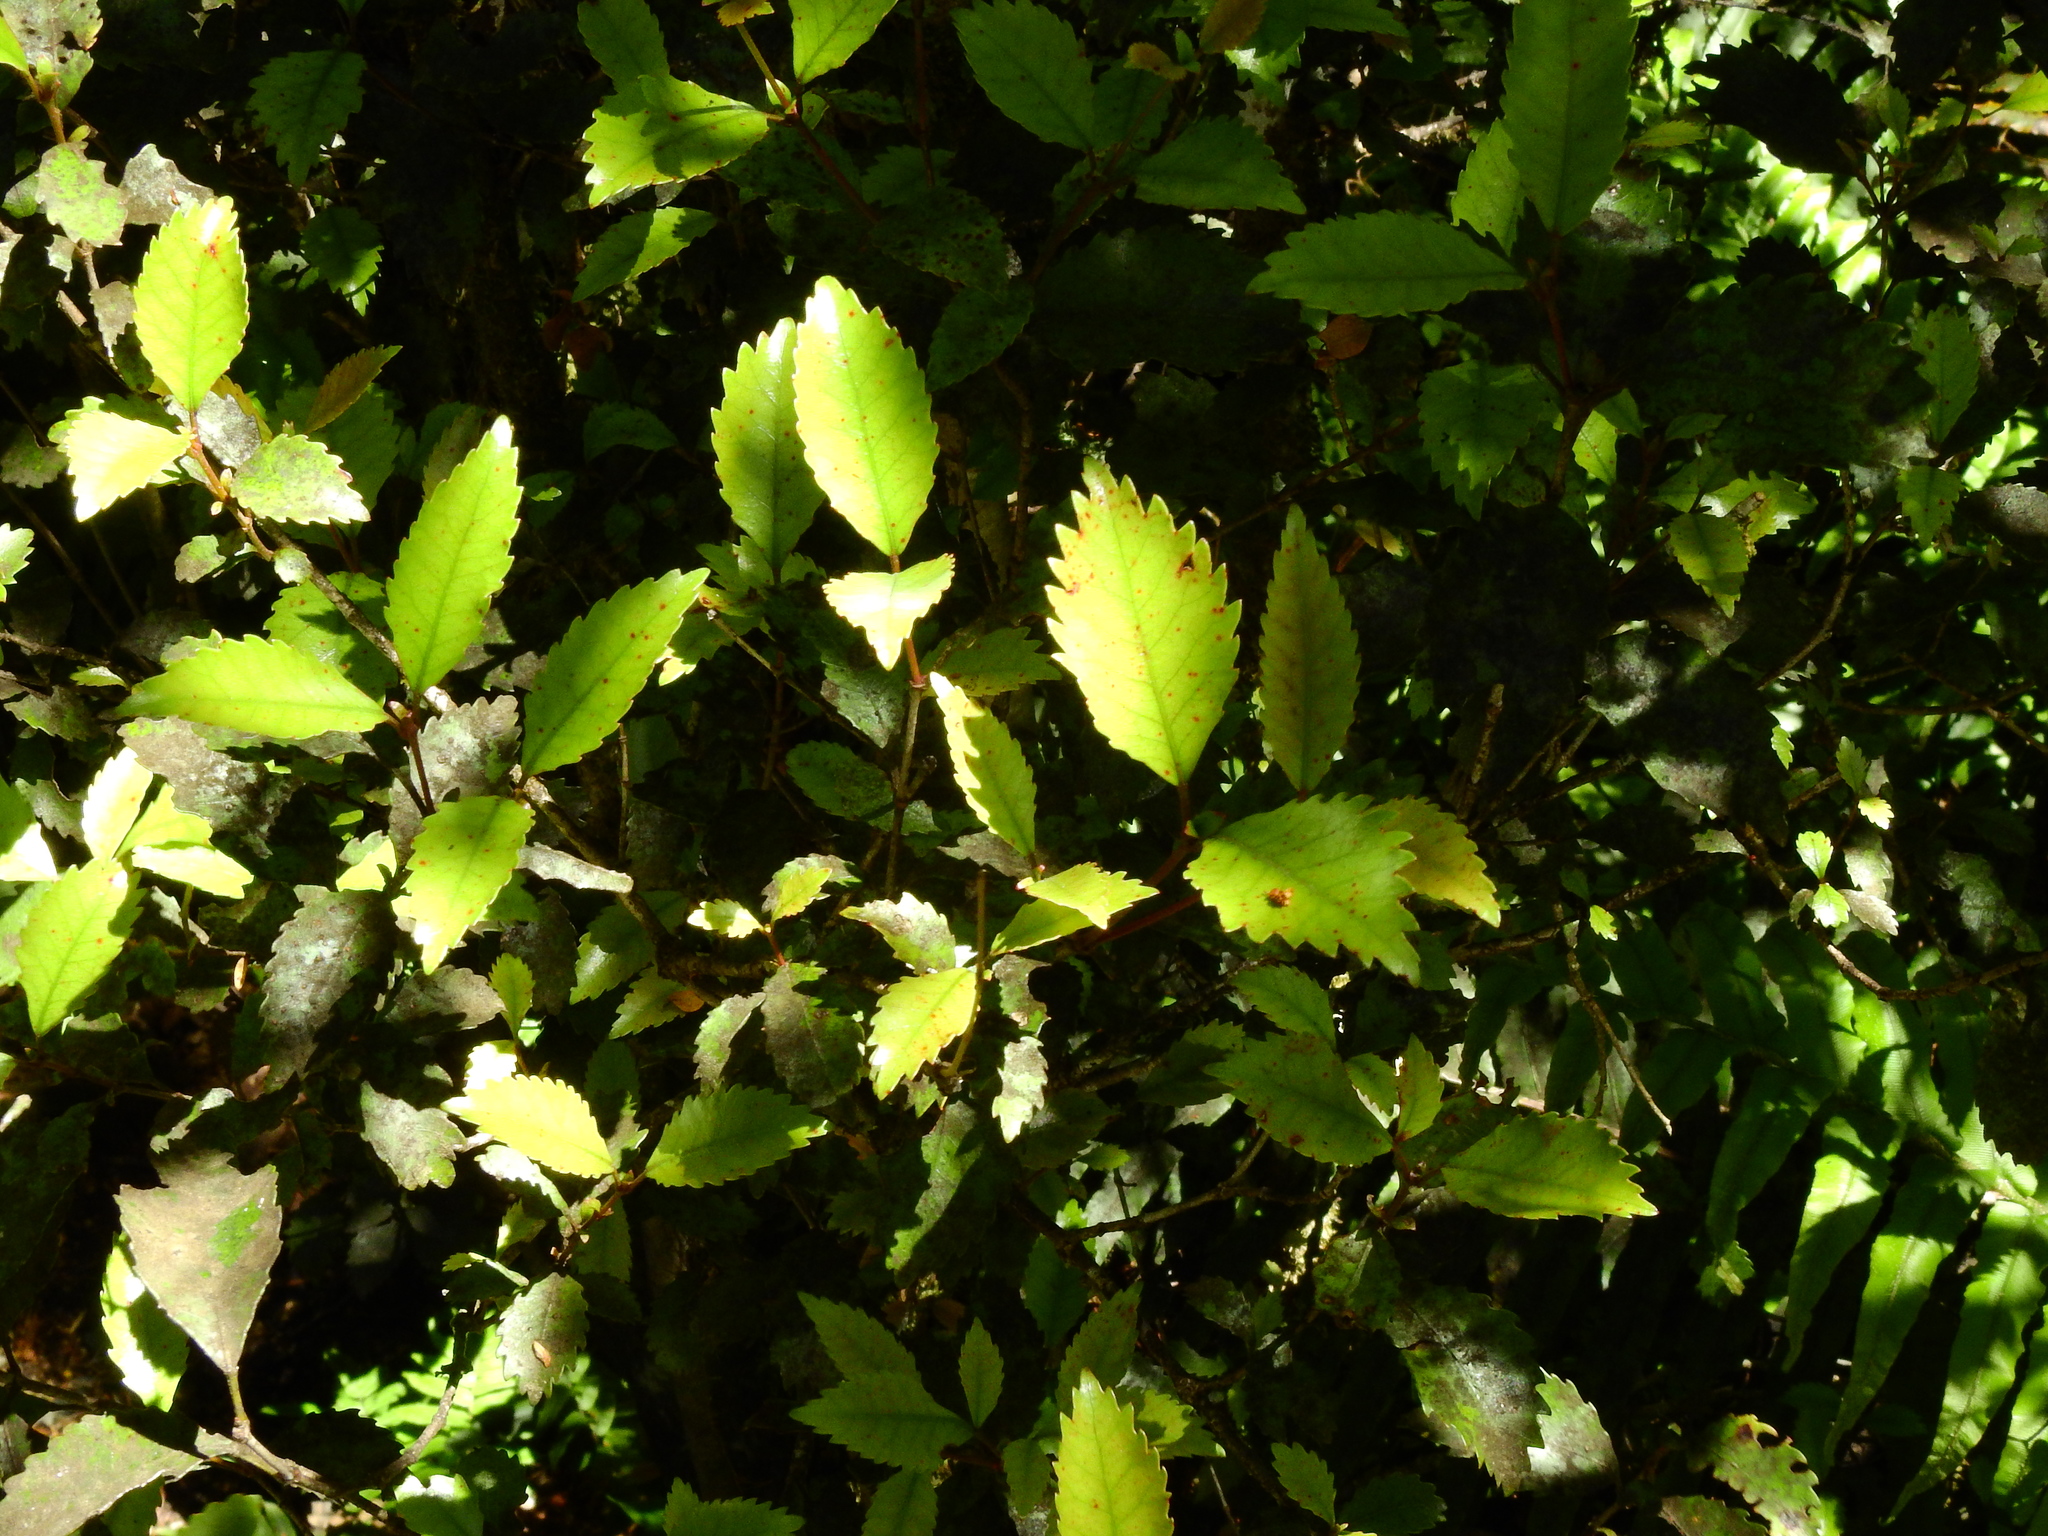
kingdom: Plantae
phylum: Tracheophyta
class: Magnoliopsida
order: Oxalidales
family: Cunoniaceae
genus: Pterophylla
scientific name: Pterophylla racemosa
